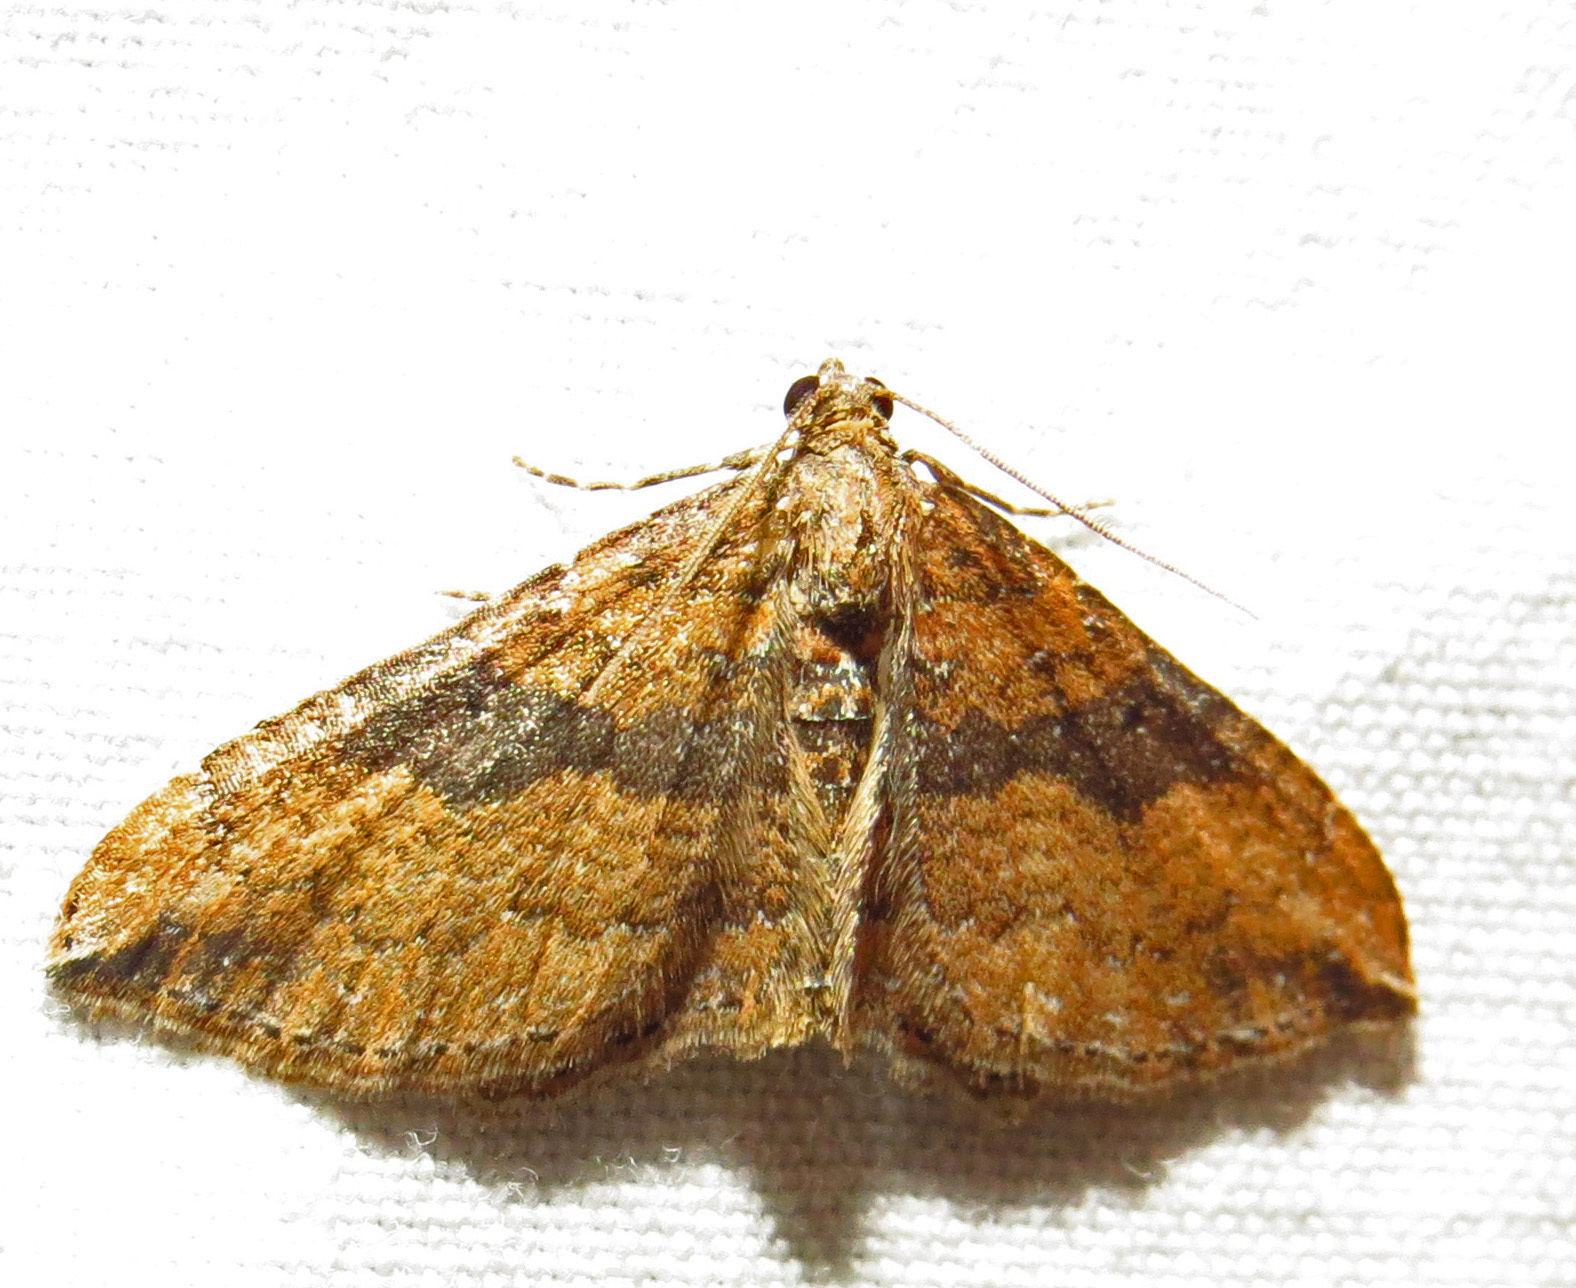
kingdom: Animalia
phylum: Arthropoda
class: Insecta
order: Lepidoptera
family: Geometridae
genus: Orthonama
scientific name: Orthonama obstipata
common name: The gem
